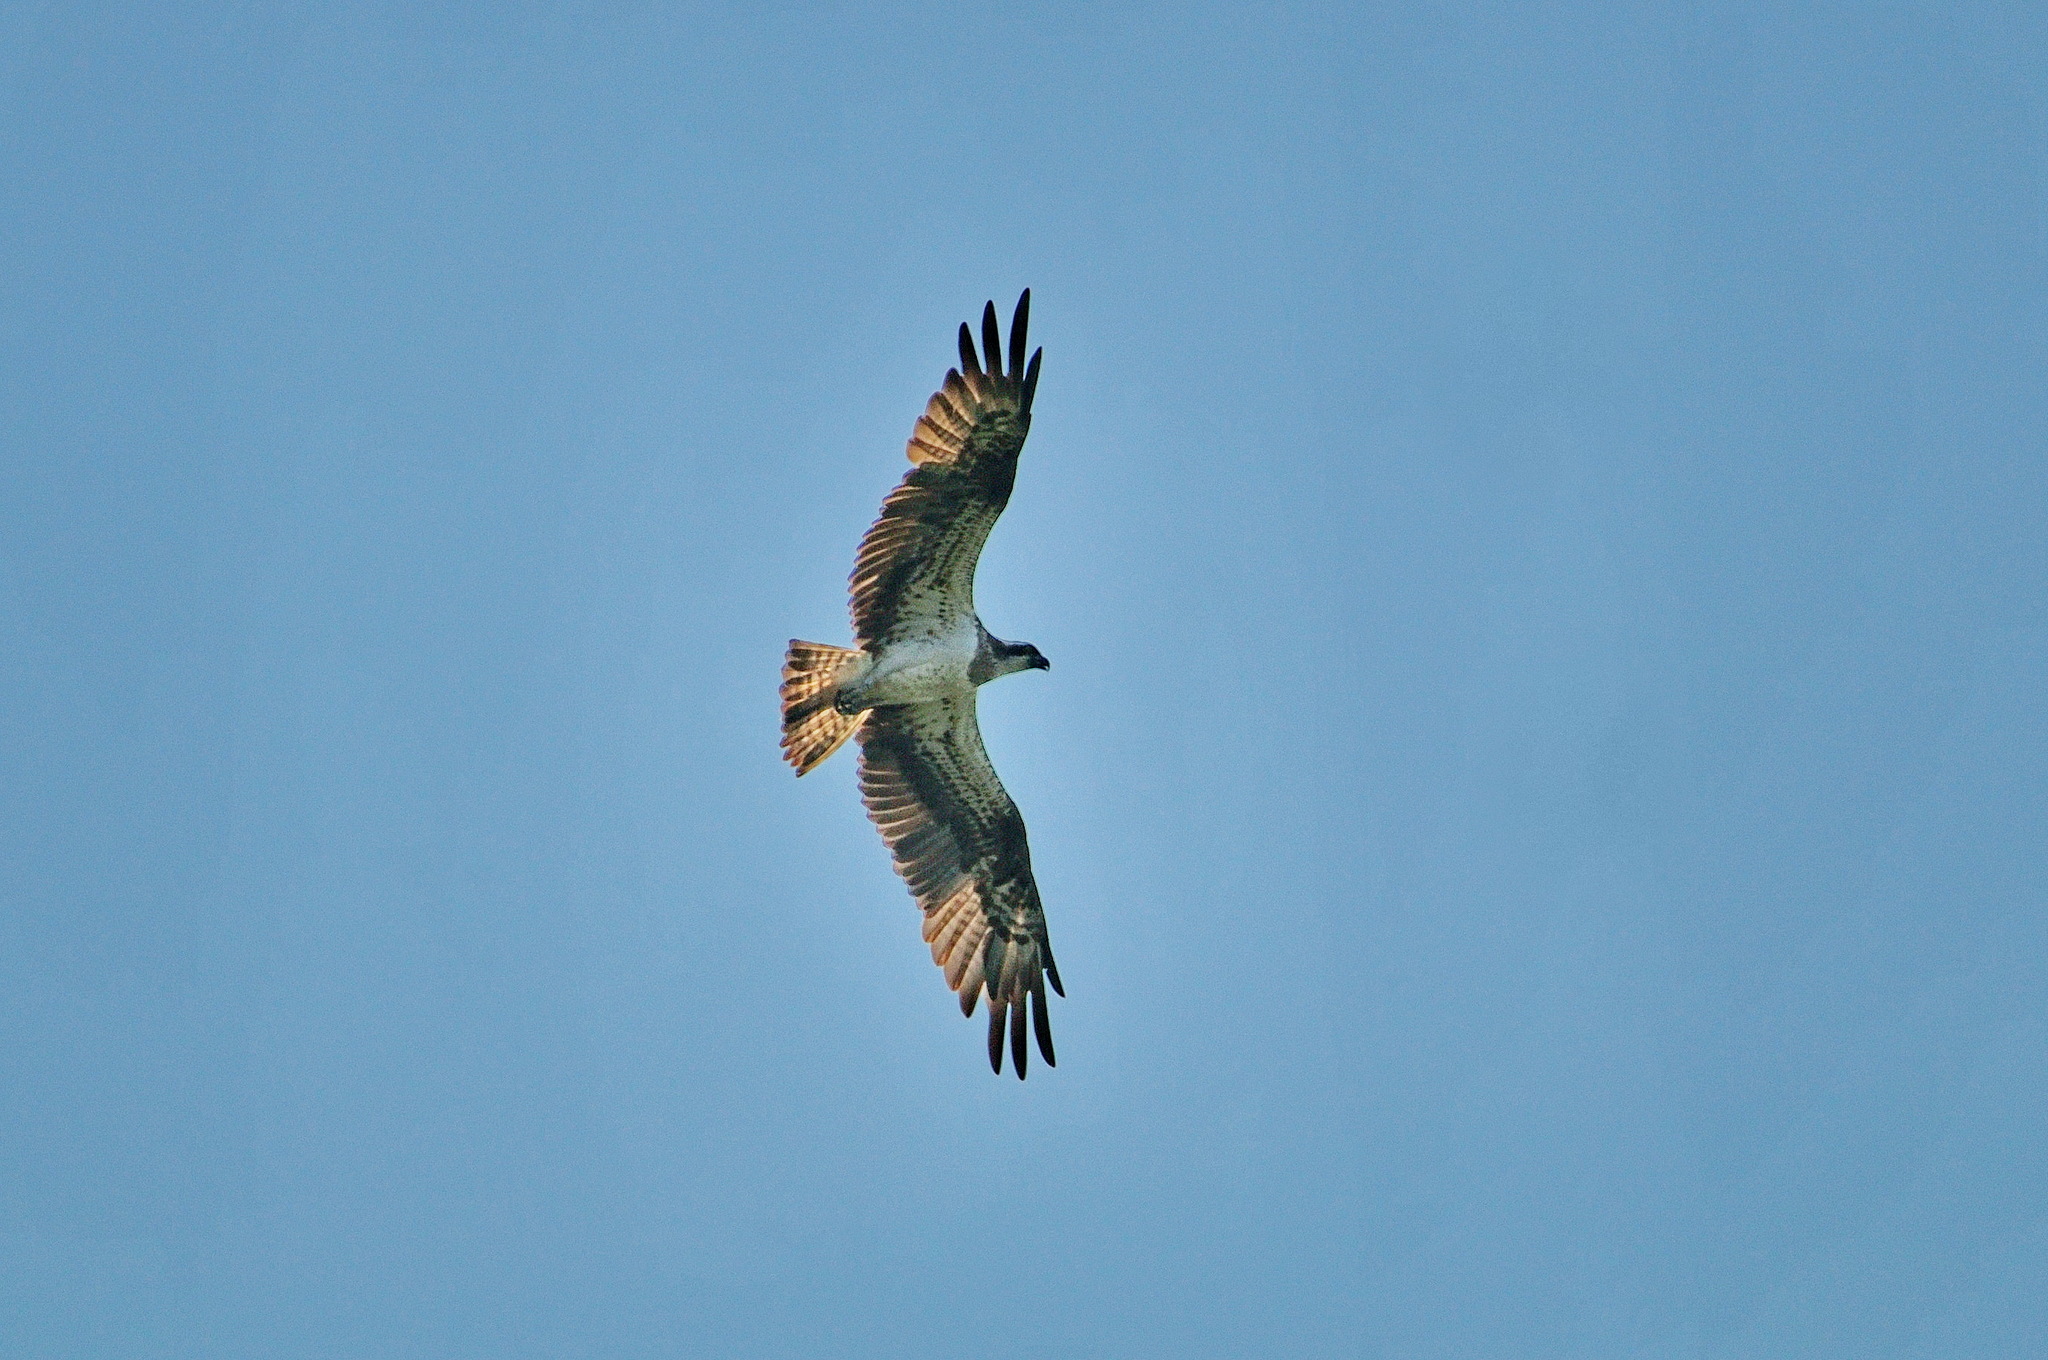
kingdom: Animalia
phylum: Chordata
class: Aves
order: Accipitriformes
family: Pandionidae
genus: Pandion
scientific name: Pandion haliaetus
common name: Osprey
